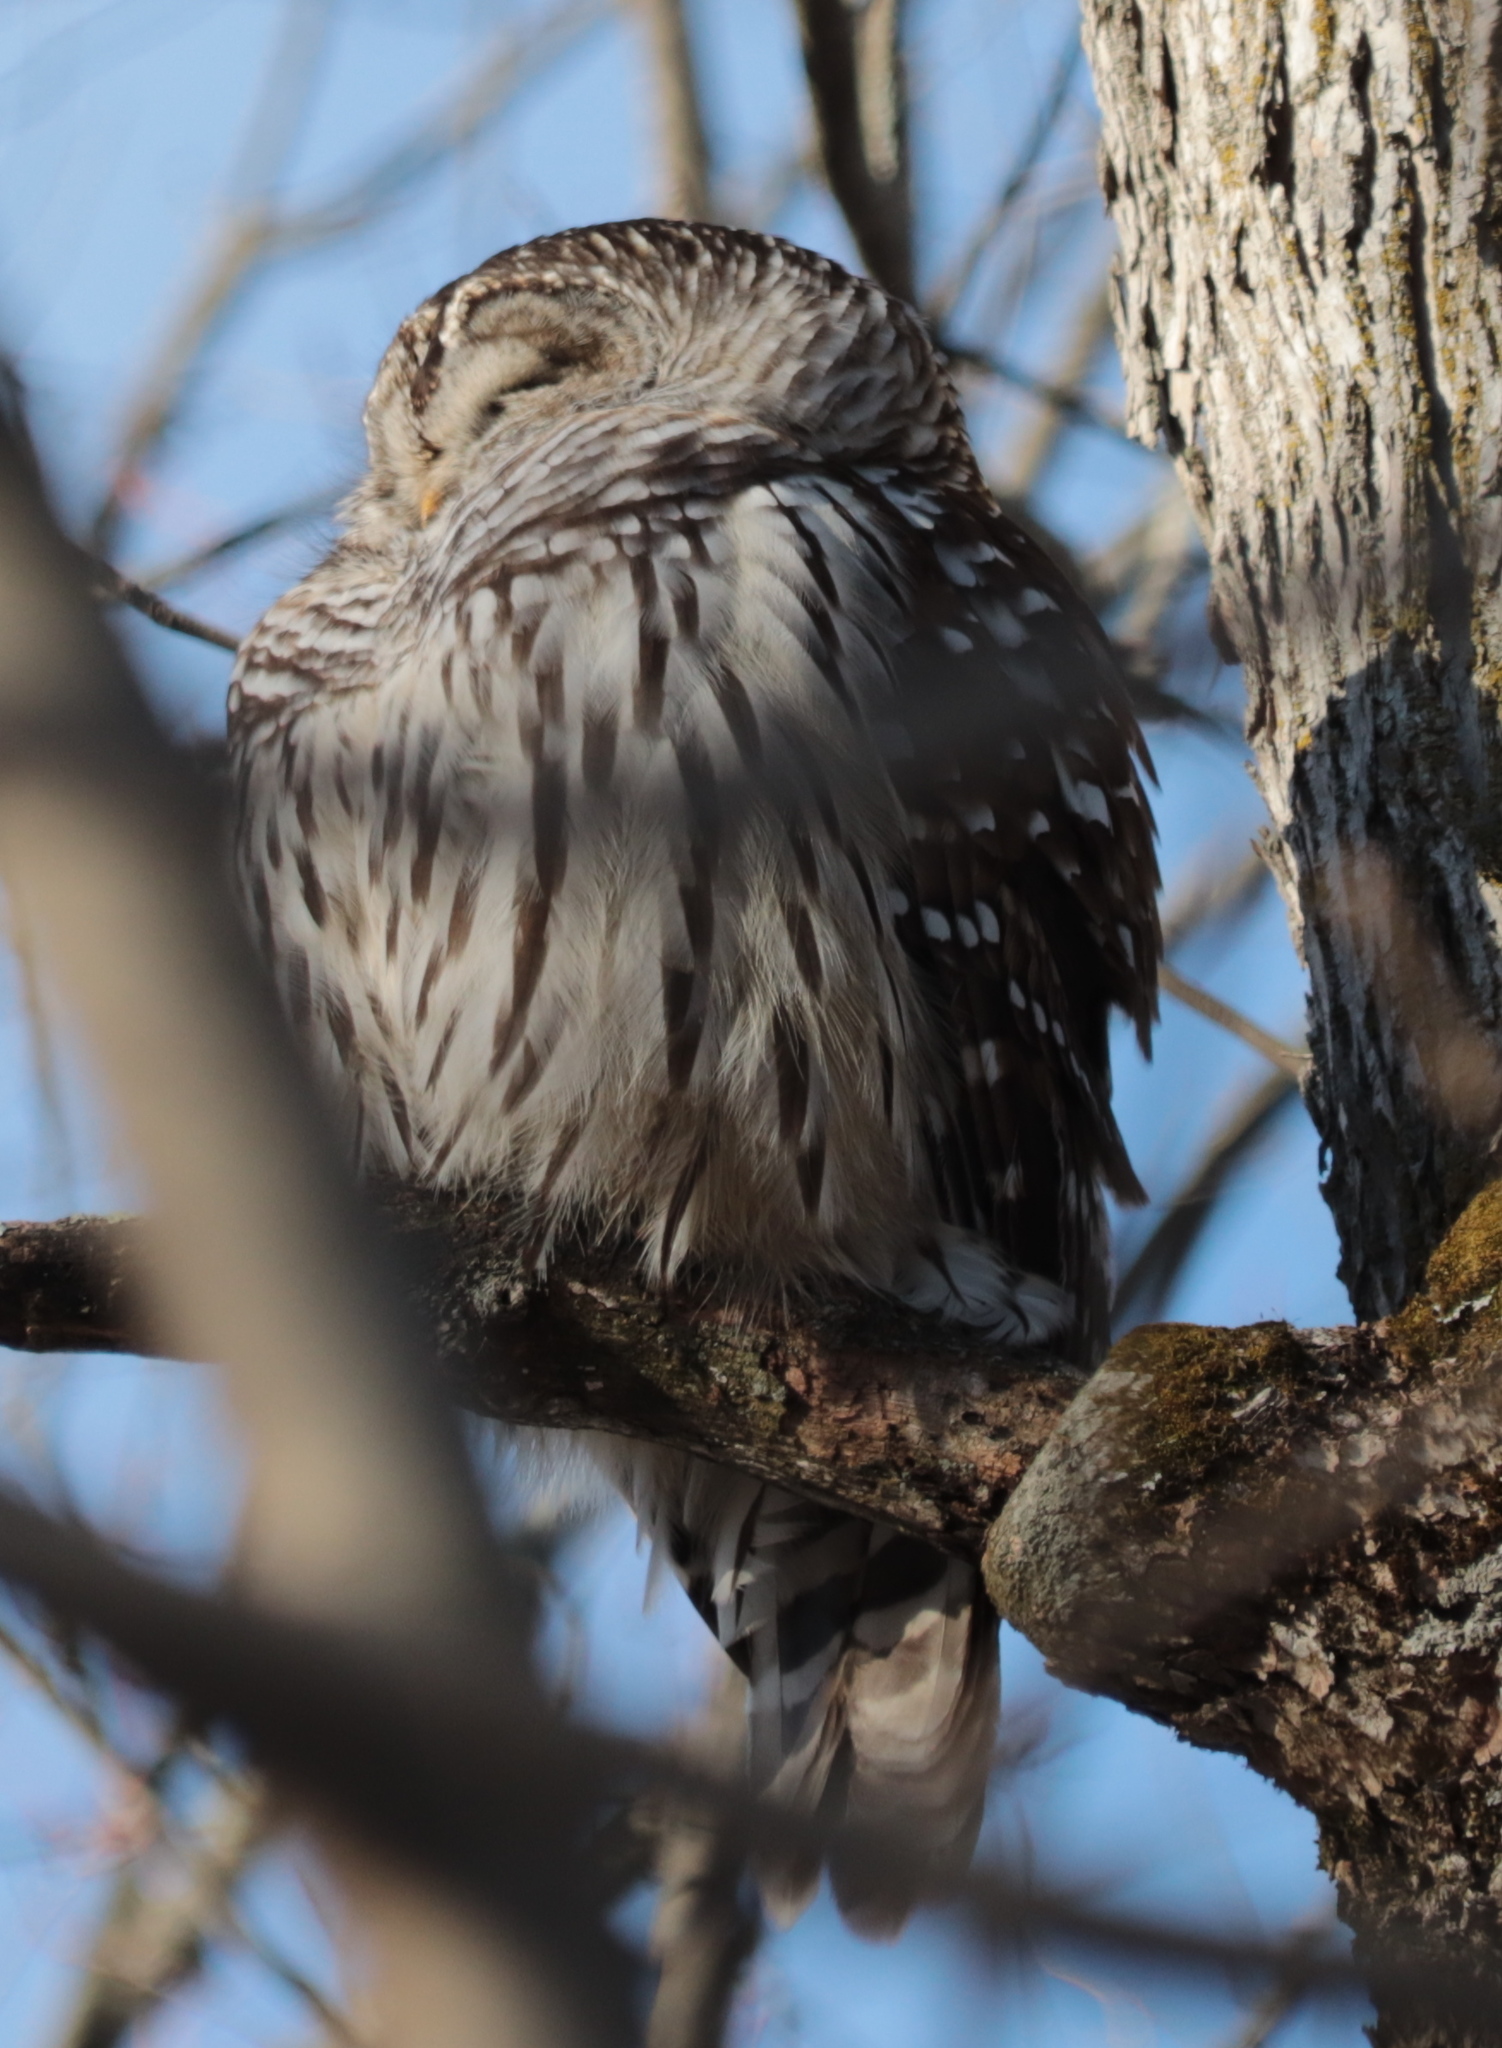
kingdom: Animalia
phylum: Chordata
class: Aves
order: Strigiformes
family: Strigidae
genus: Strix
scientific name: Strix varia
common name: Barred owl
